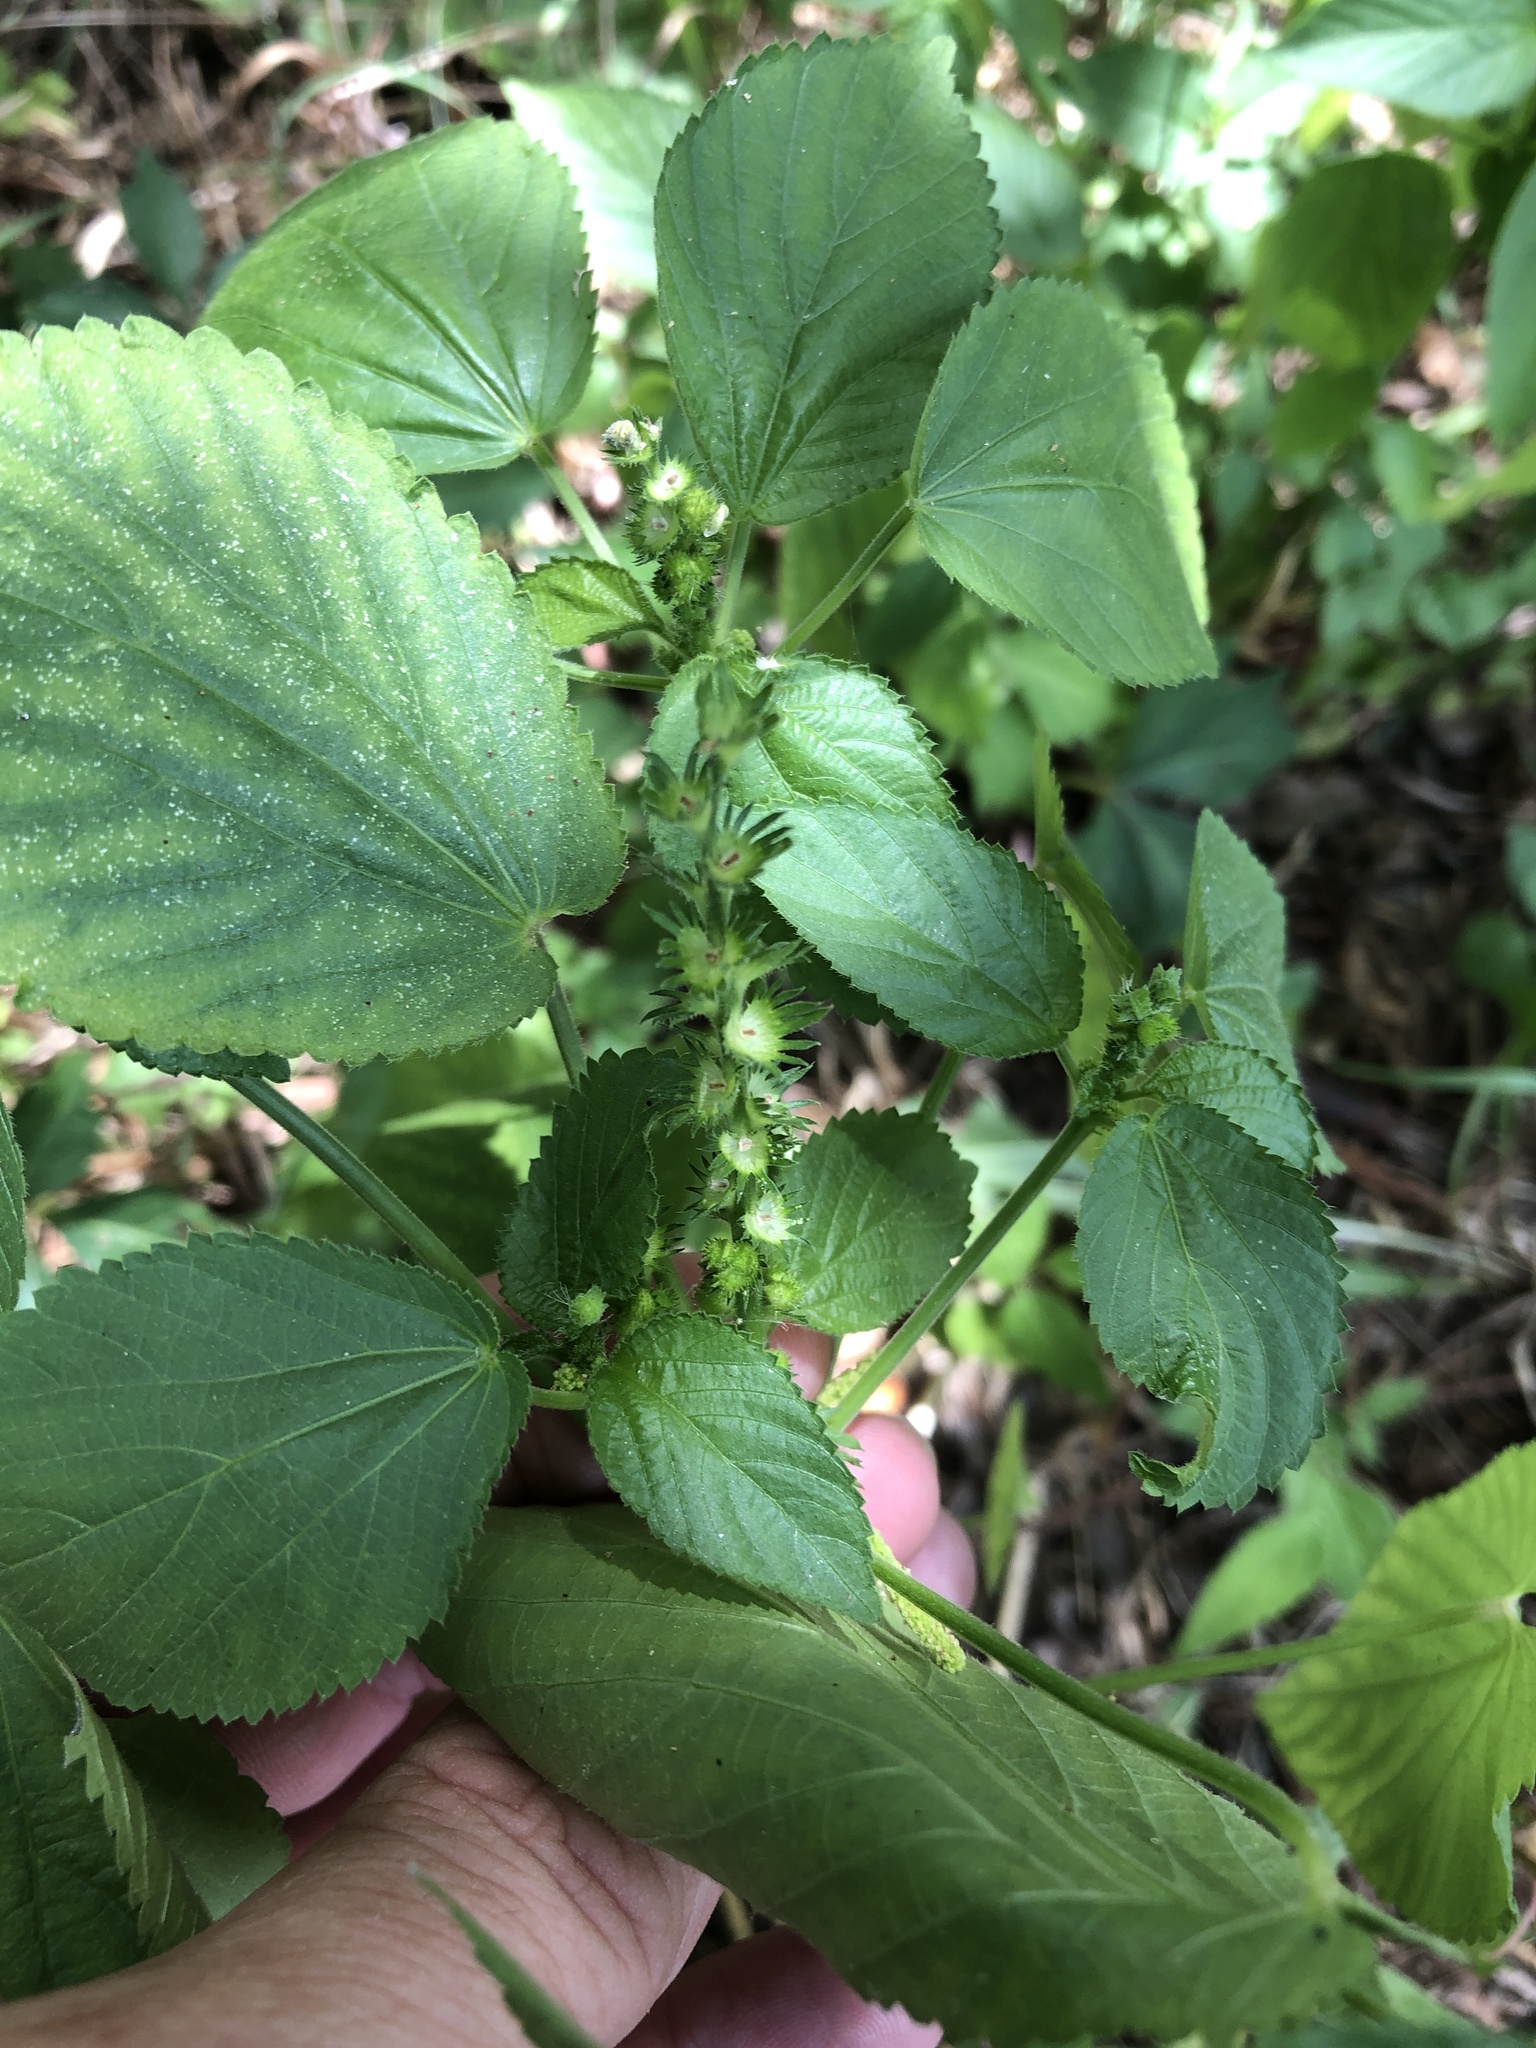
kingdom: Plantae
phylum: Tracheophyta
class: Magnoliopsida
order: Malpighiales
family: Euphorbiaceae
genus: Acalypha
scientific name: Acalypha ostryifolia
